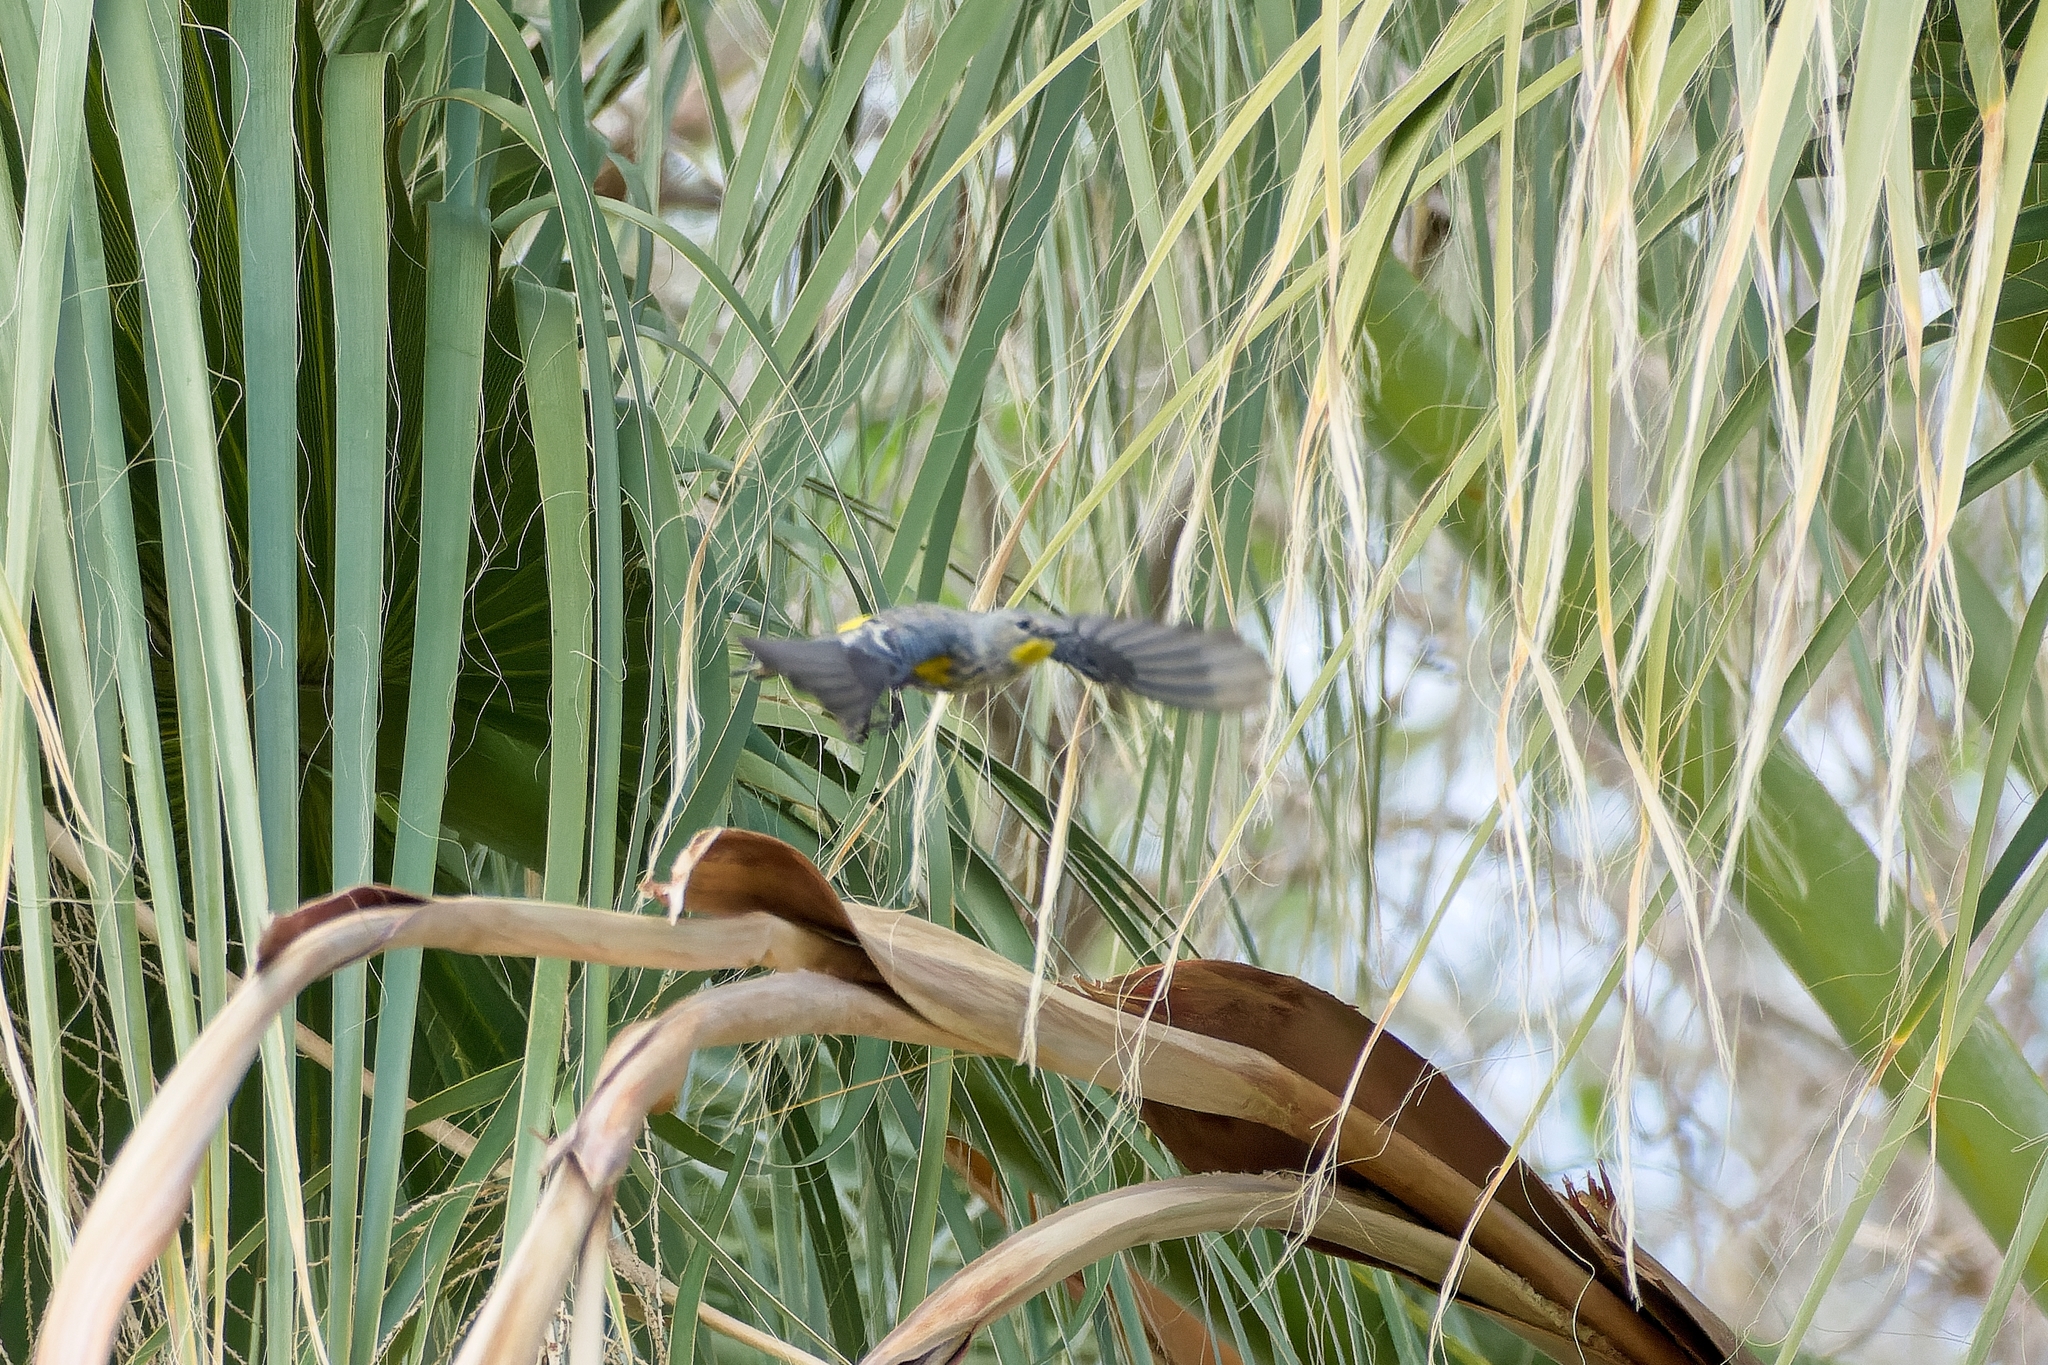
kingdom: Animalia
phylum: Chordata
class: Aves
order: Passeriformes
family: Parulidae
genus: Setophaga
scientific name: Setophaga coronata
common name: Myrtle warbler
